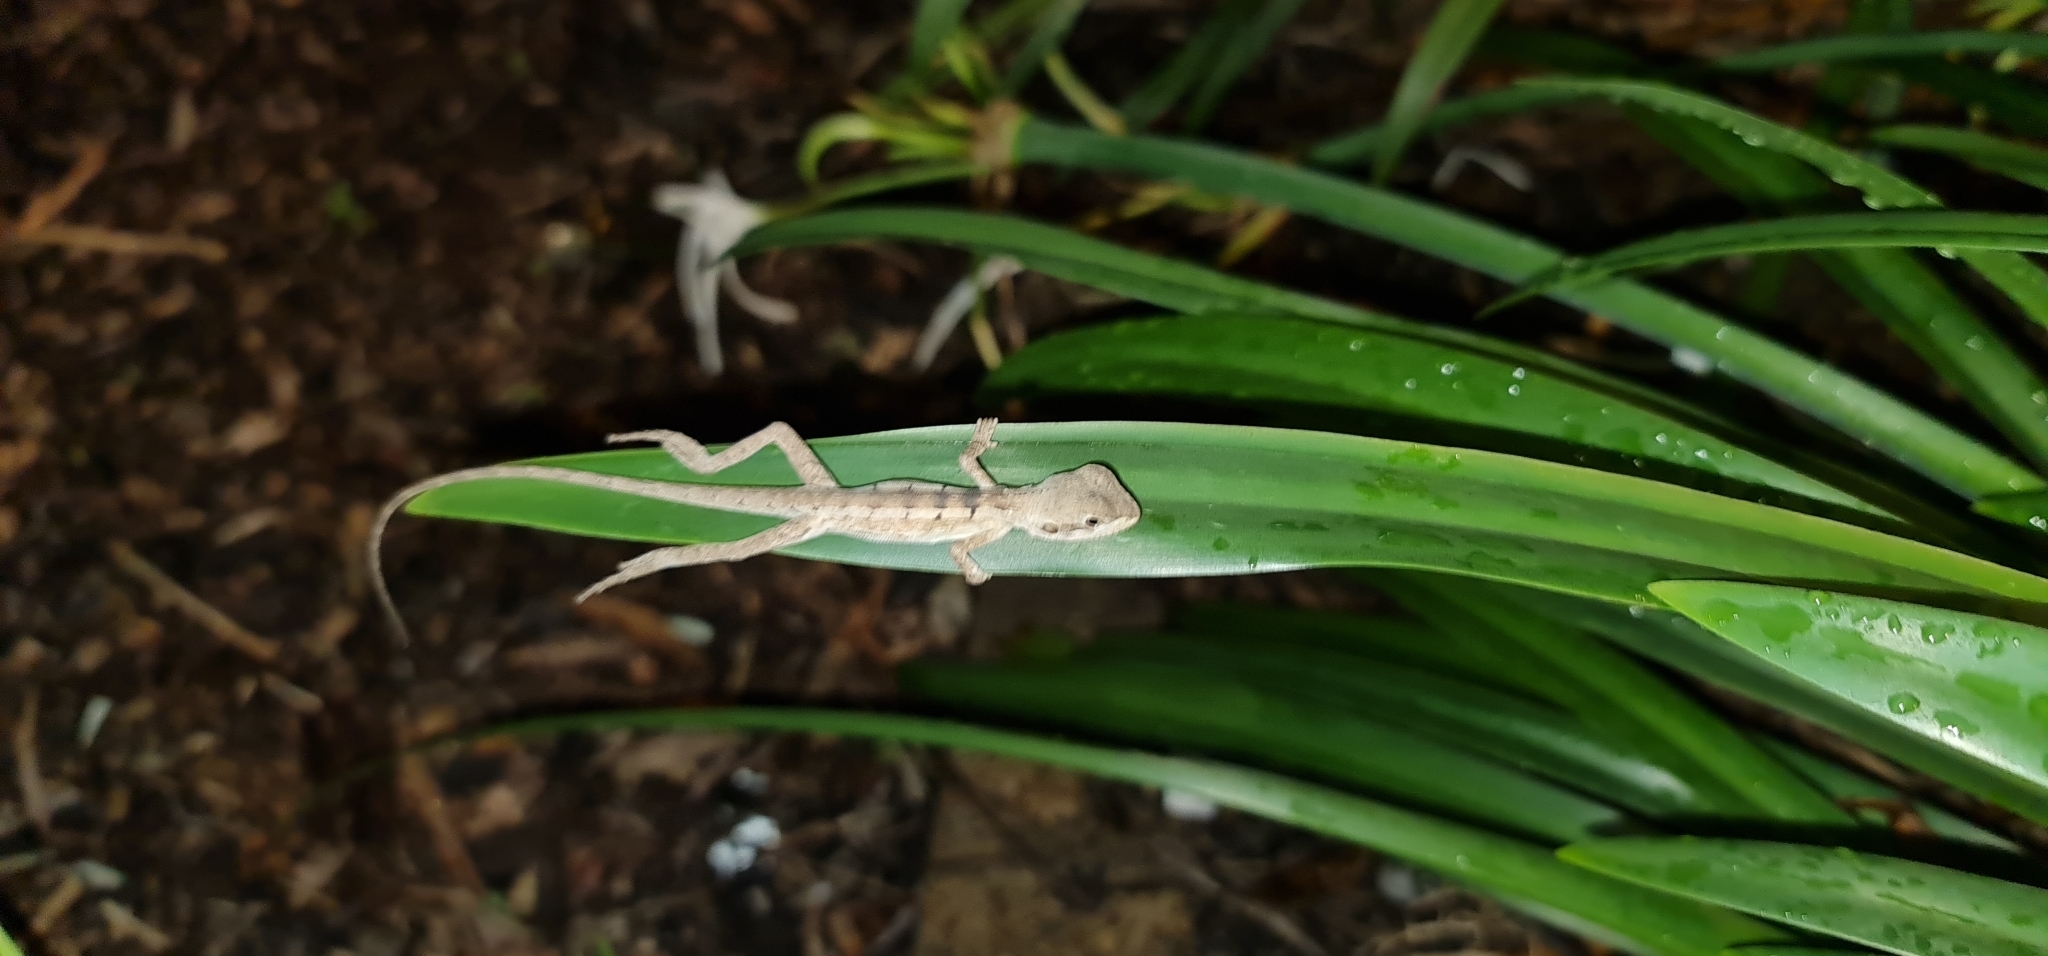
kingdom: Animalia
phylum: Chordata
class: Squamata
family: Agamidae
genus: Tropicagama
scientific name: Tropicagama temporalis
